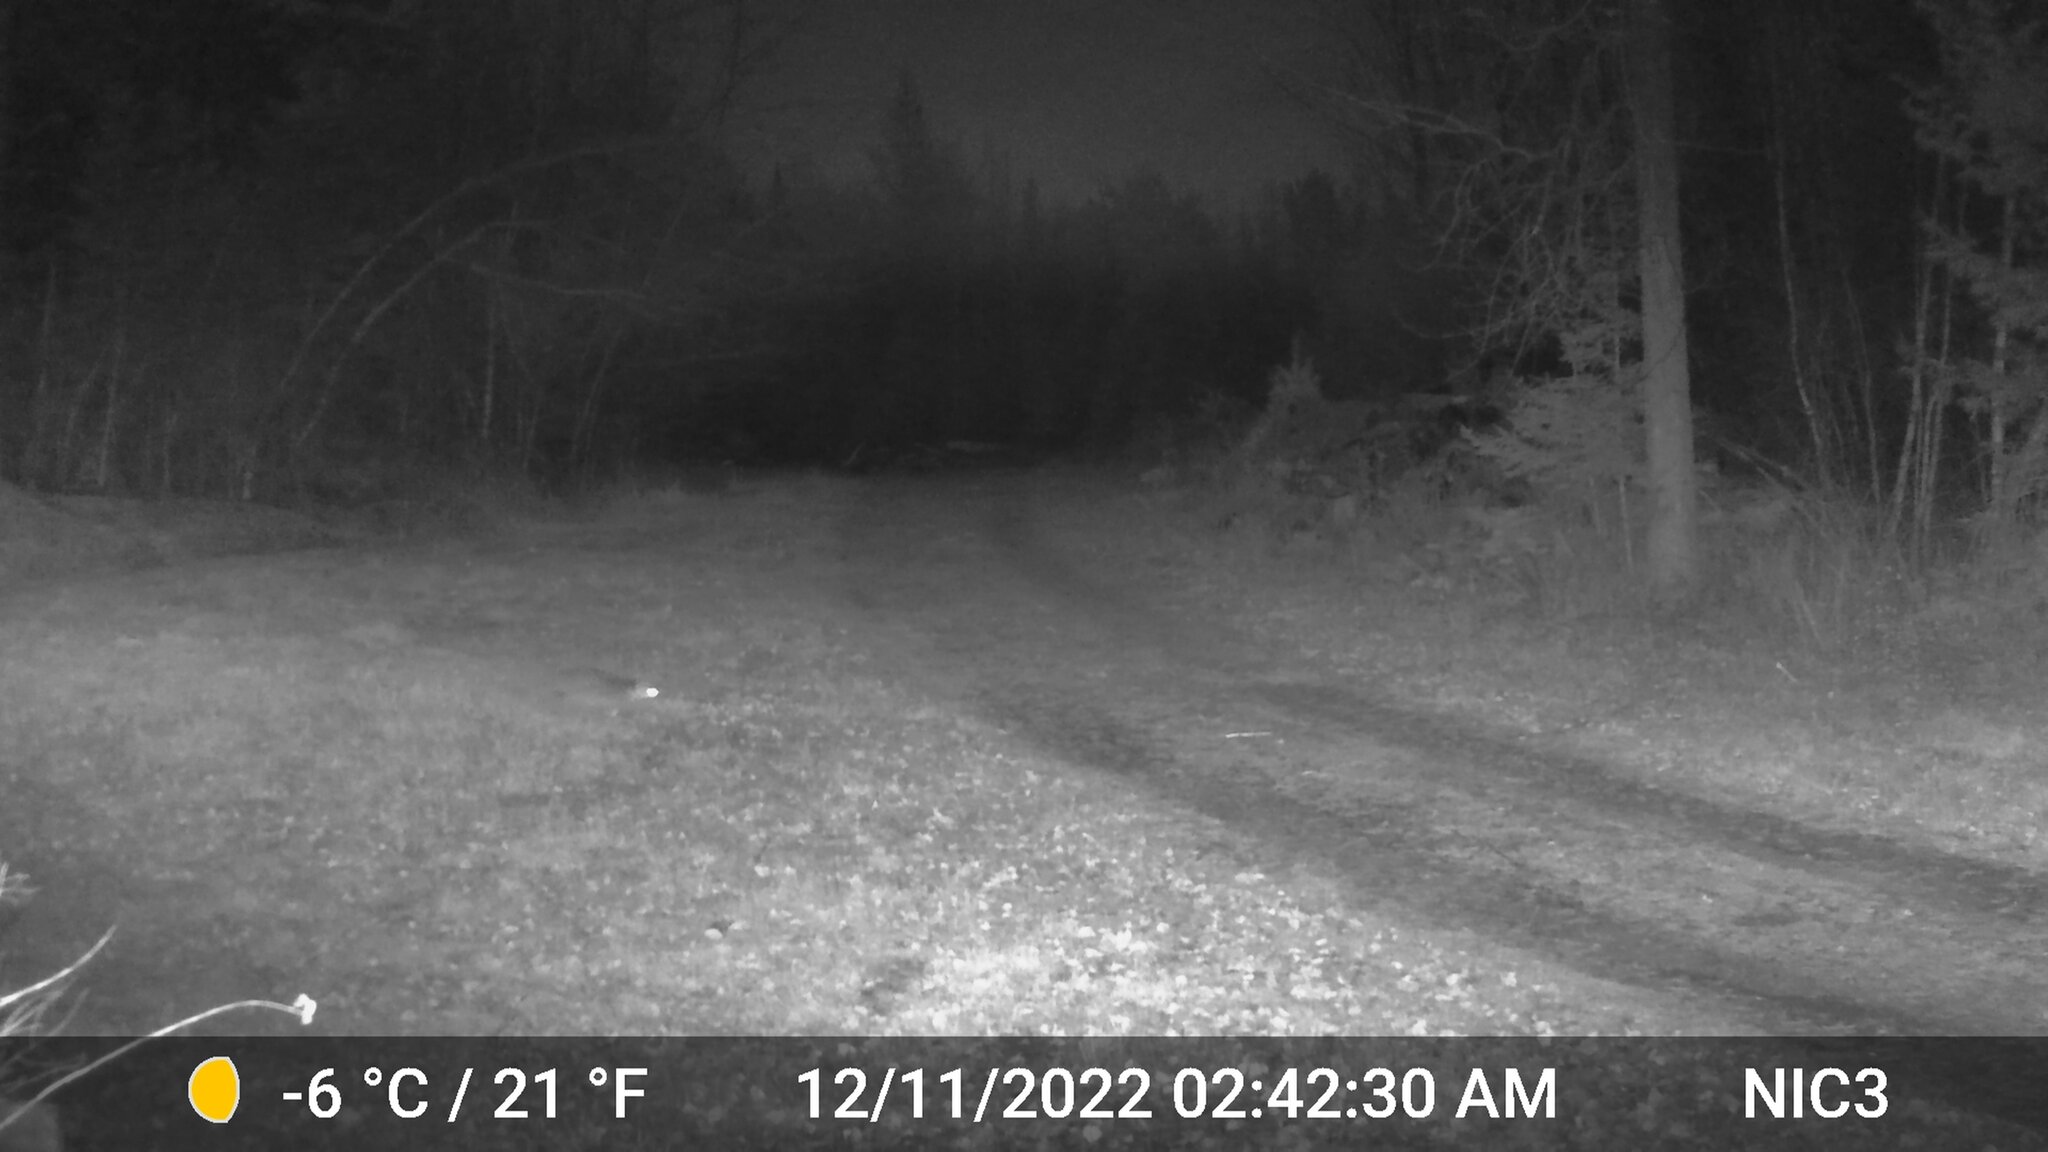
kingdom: Animalia
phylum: Chordata
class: Mammalia
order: Carnivora
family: Felidae
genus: Lynx
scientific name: Lynx rufus
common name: Bobcat
